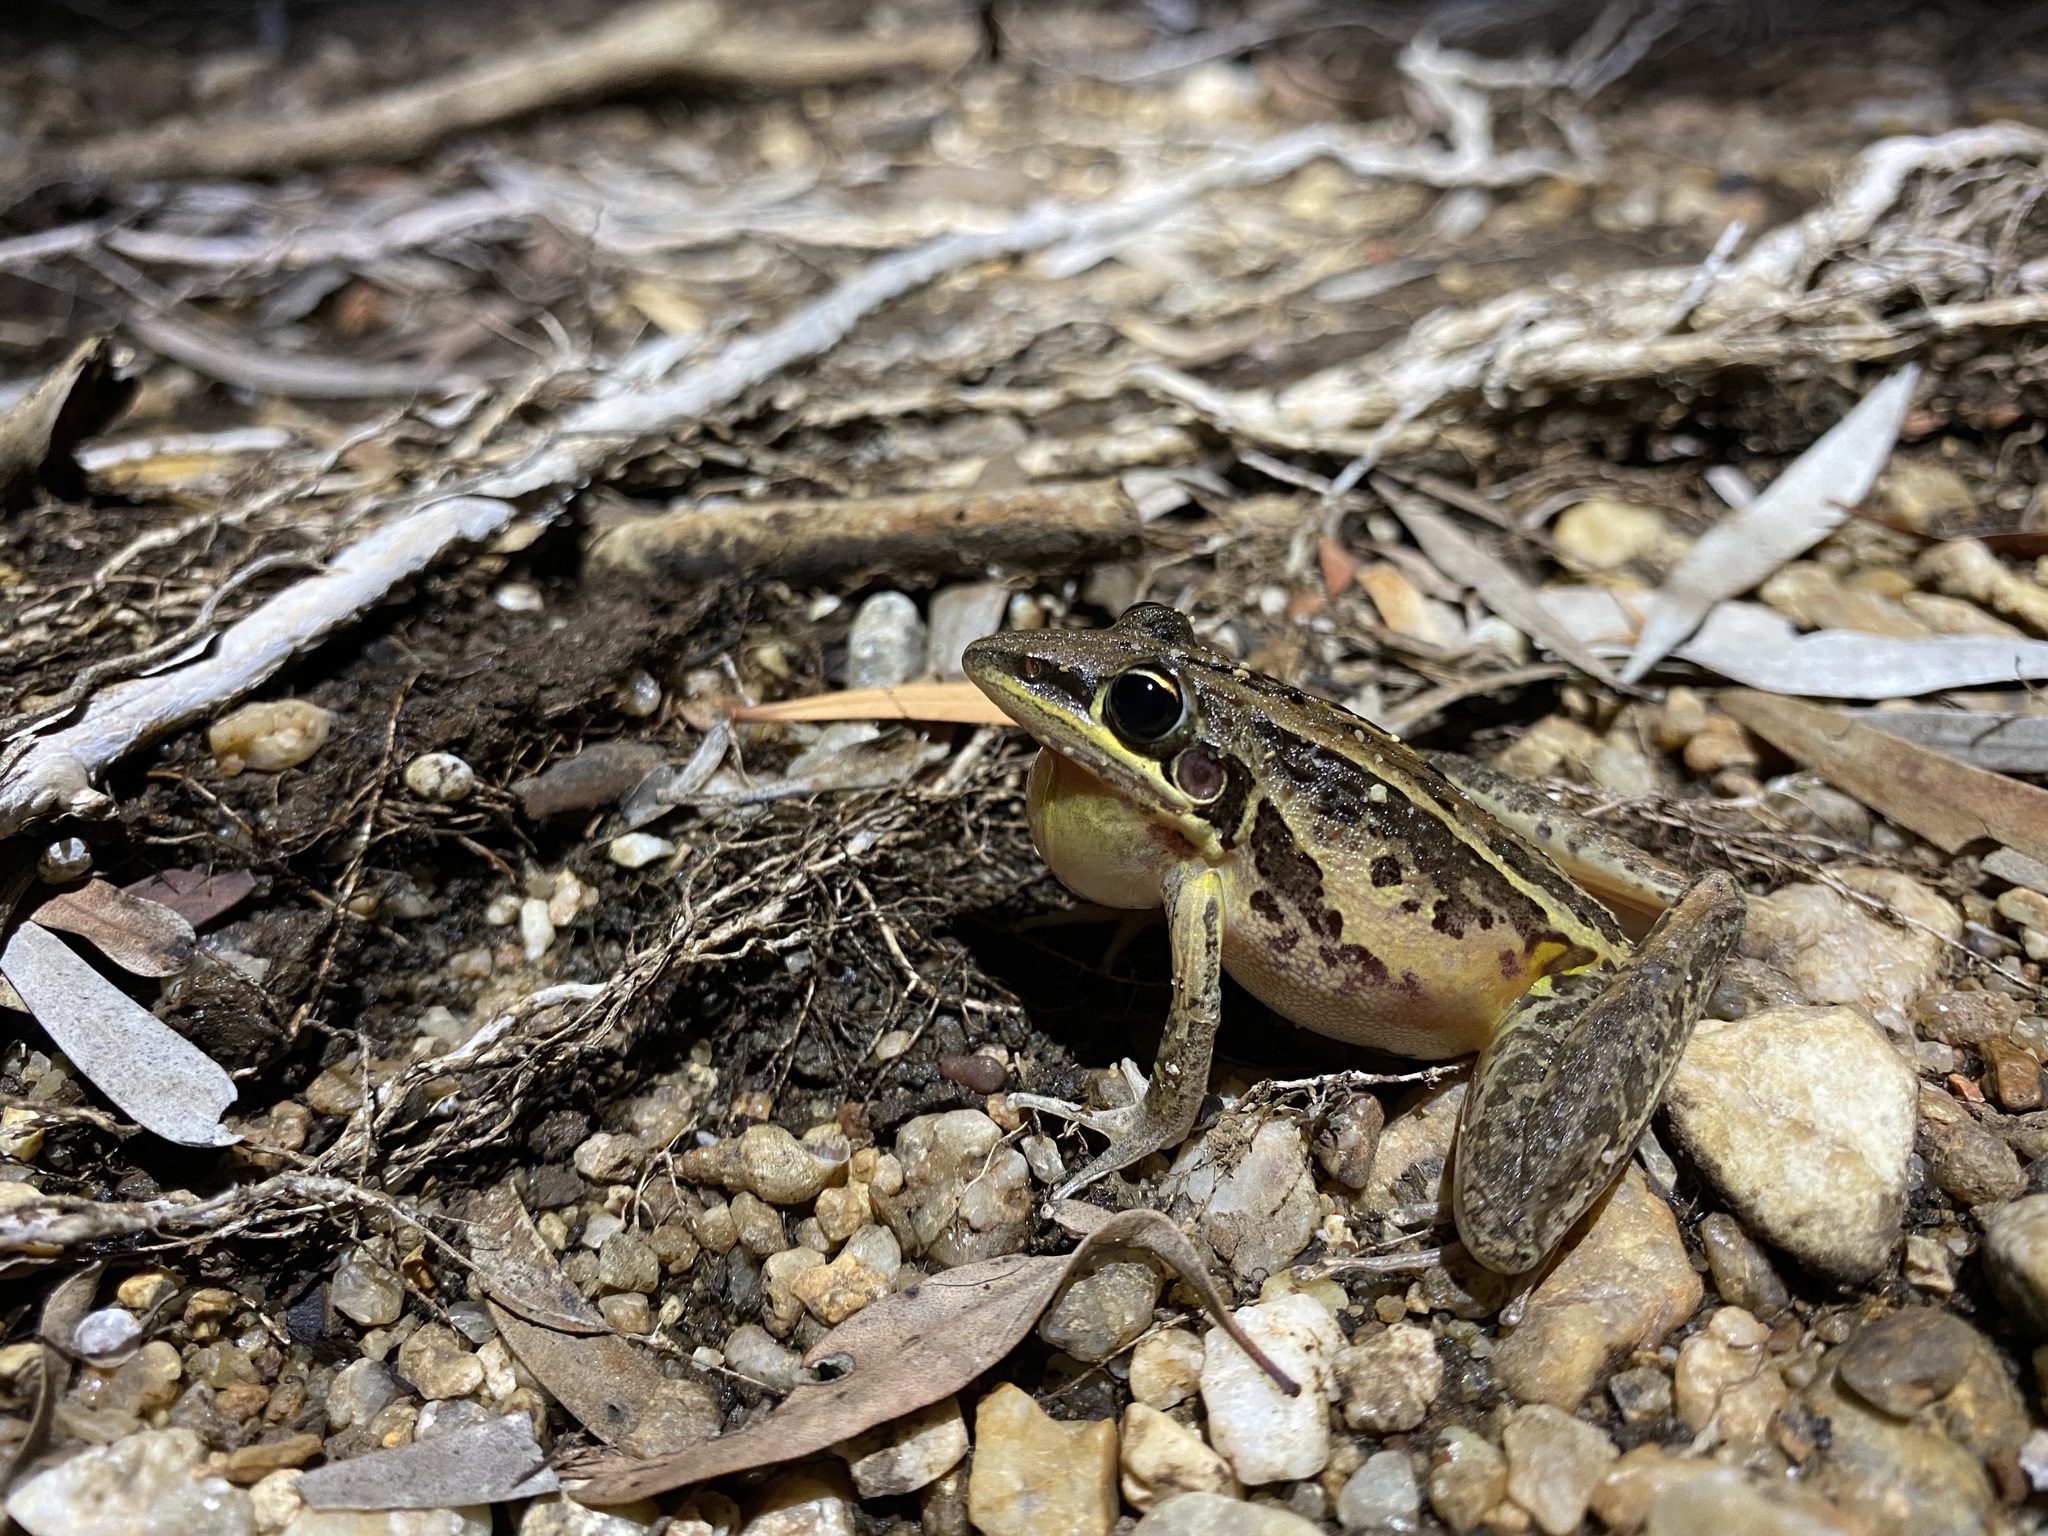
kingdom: Animalia
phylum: Chordata
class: Amphibia
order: Anura
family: Pelodryadidae
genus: Litoria
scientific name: Litoria nasuta
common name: Rocket frog
